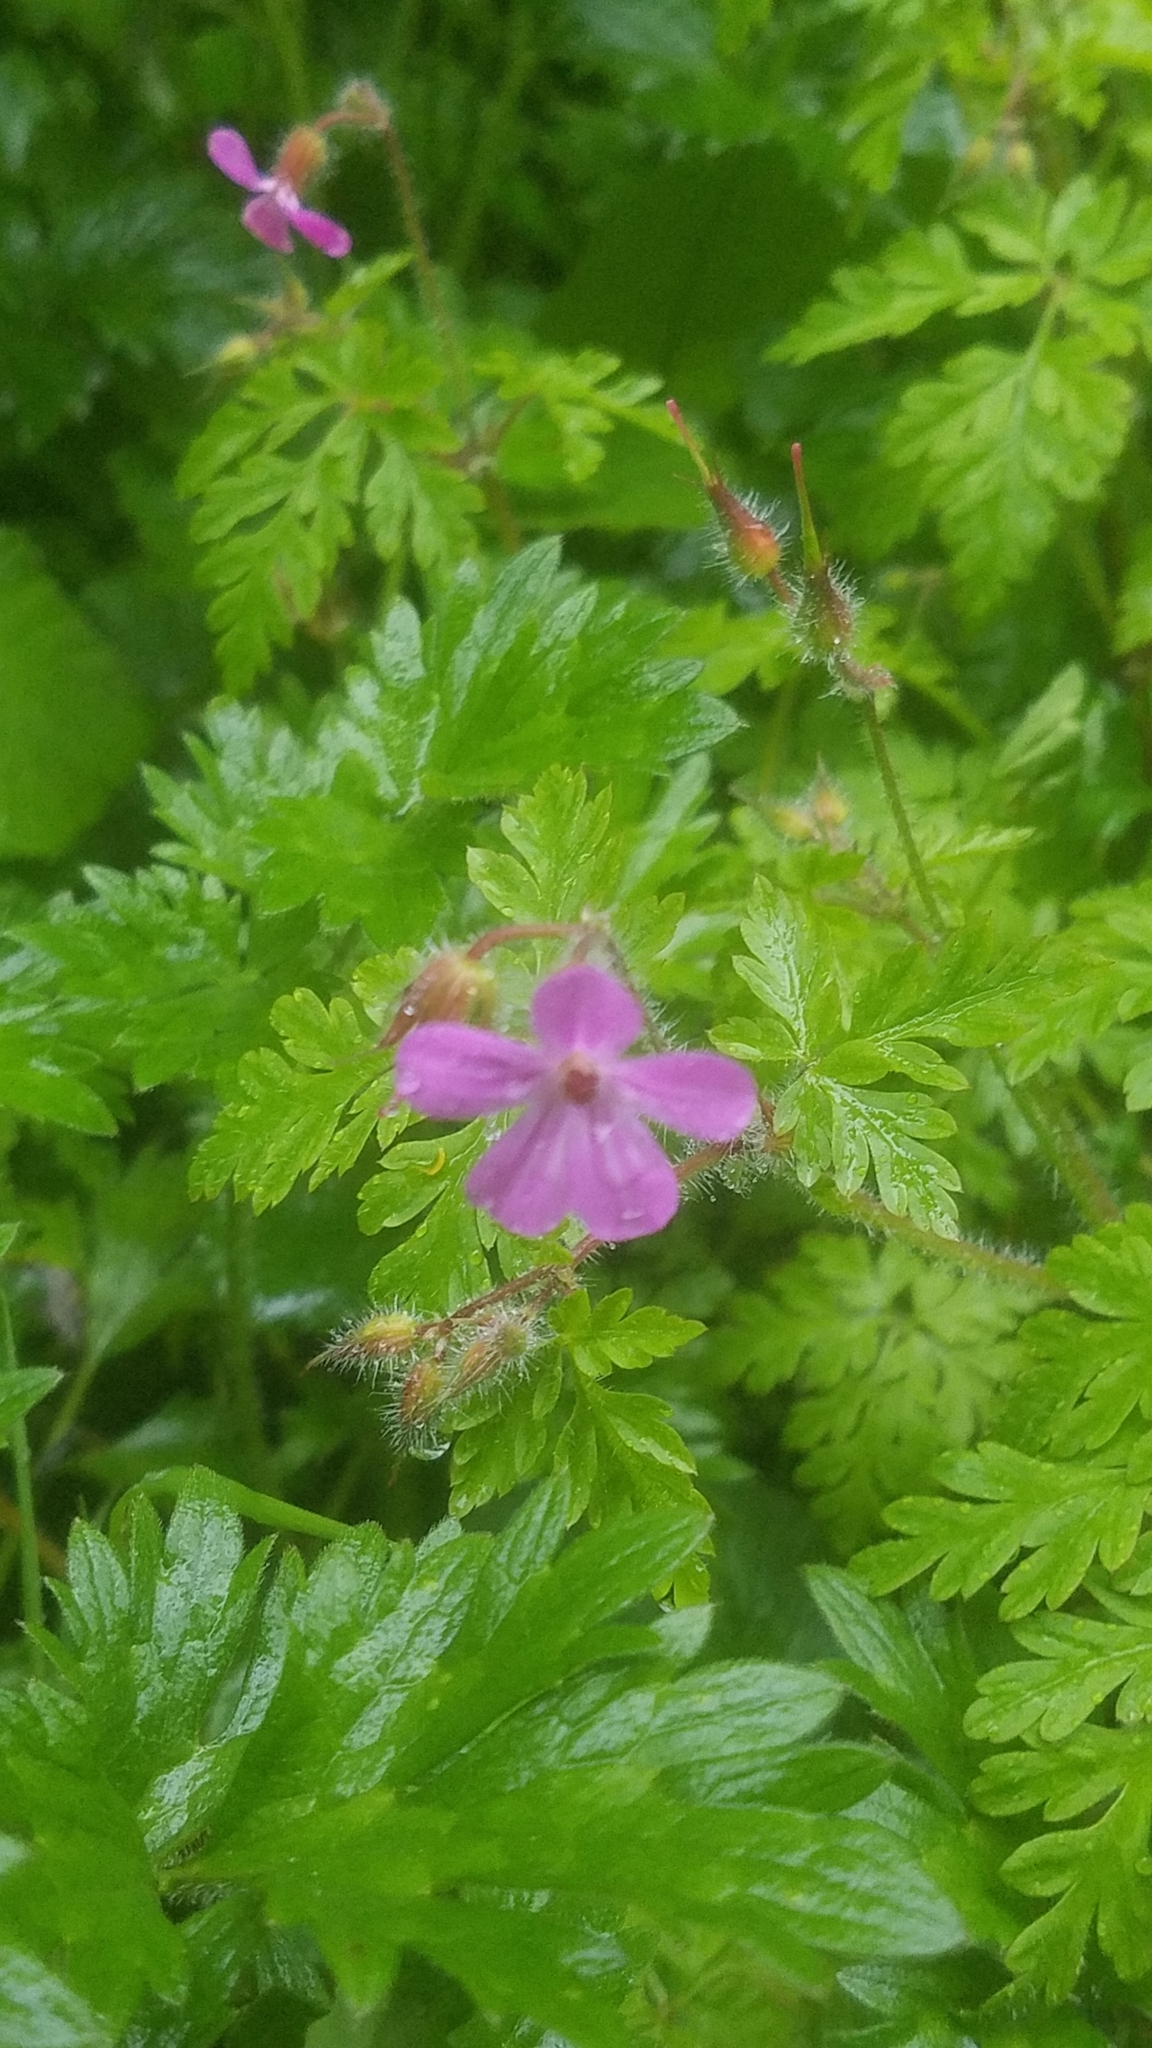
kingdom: Plantae
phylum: Tracheophyta
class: Magnoliopsida
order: Geraniales
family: Geraniaceae
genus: Geranium
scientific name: Geranium robertianum
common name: Herb-robert
